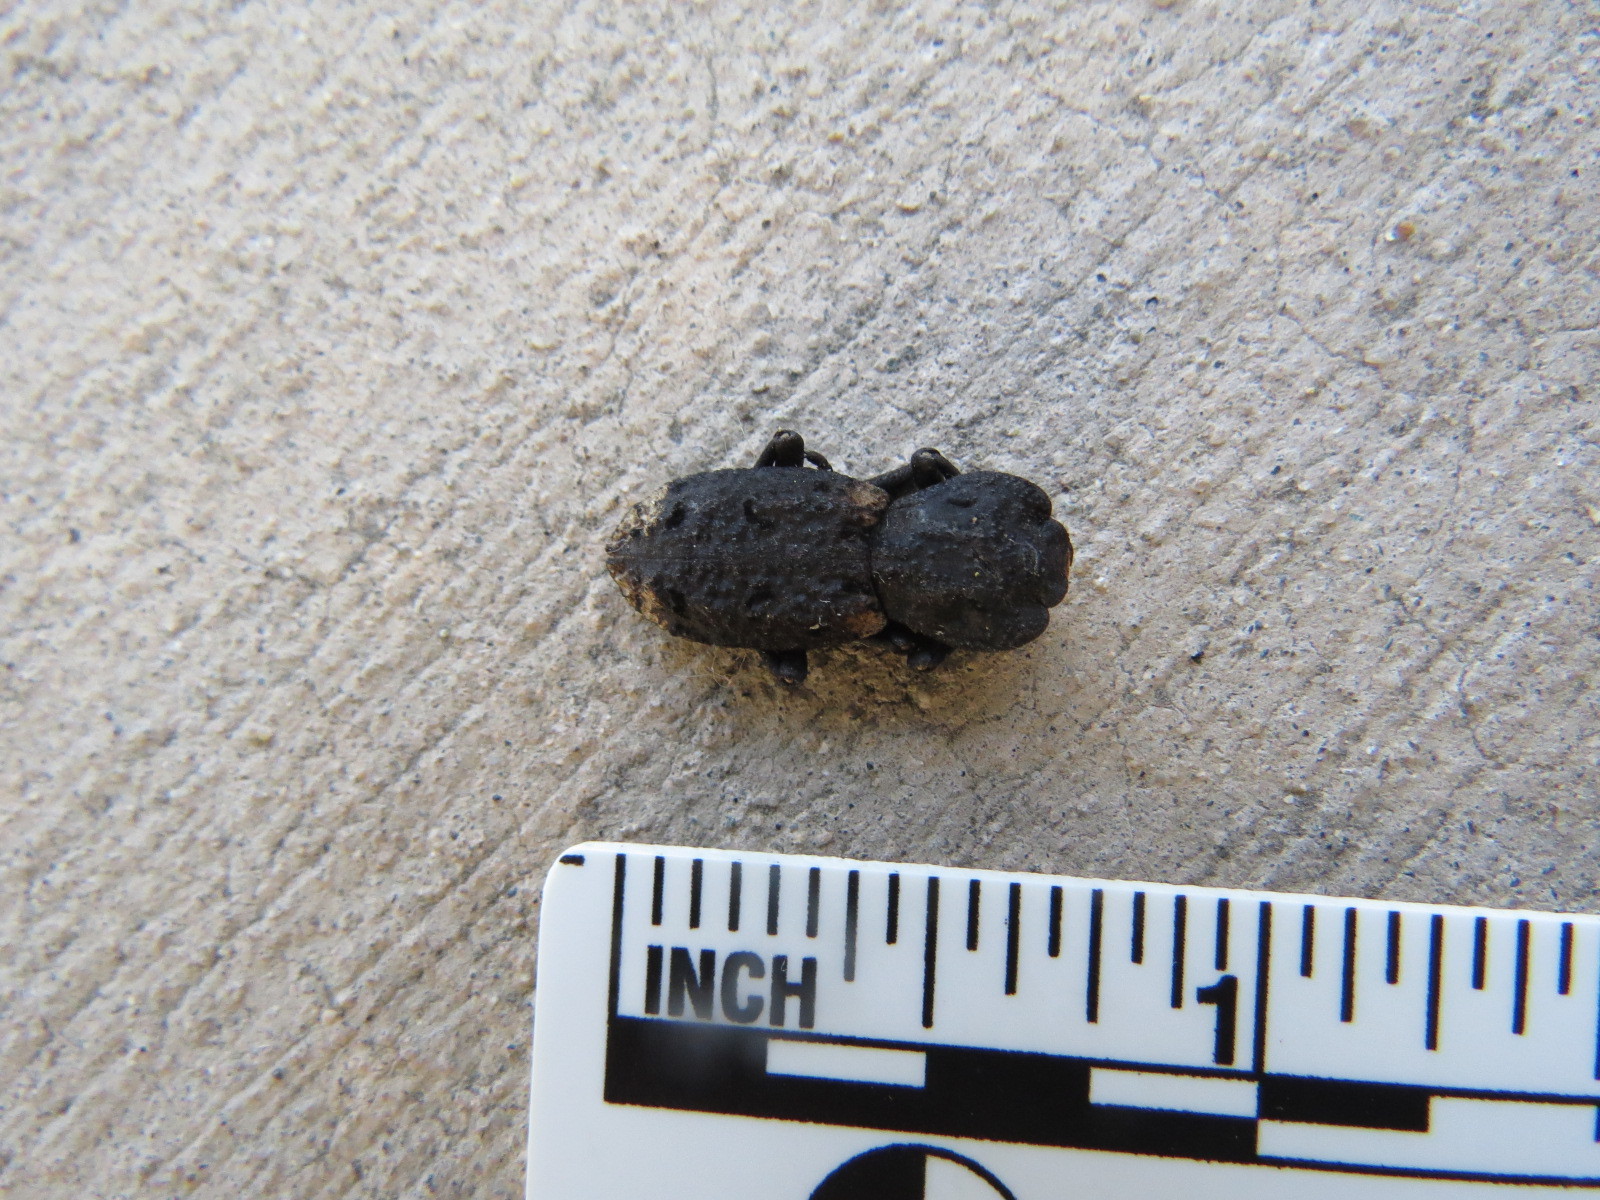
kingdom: Animalia
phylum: Arthropoda
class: Insecta
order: Coleoptera
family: Zopheridae
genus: Phloeodes
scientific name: Phloeodes diabolicus
